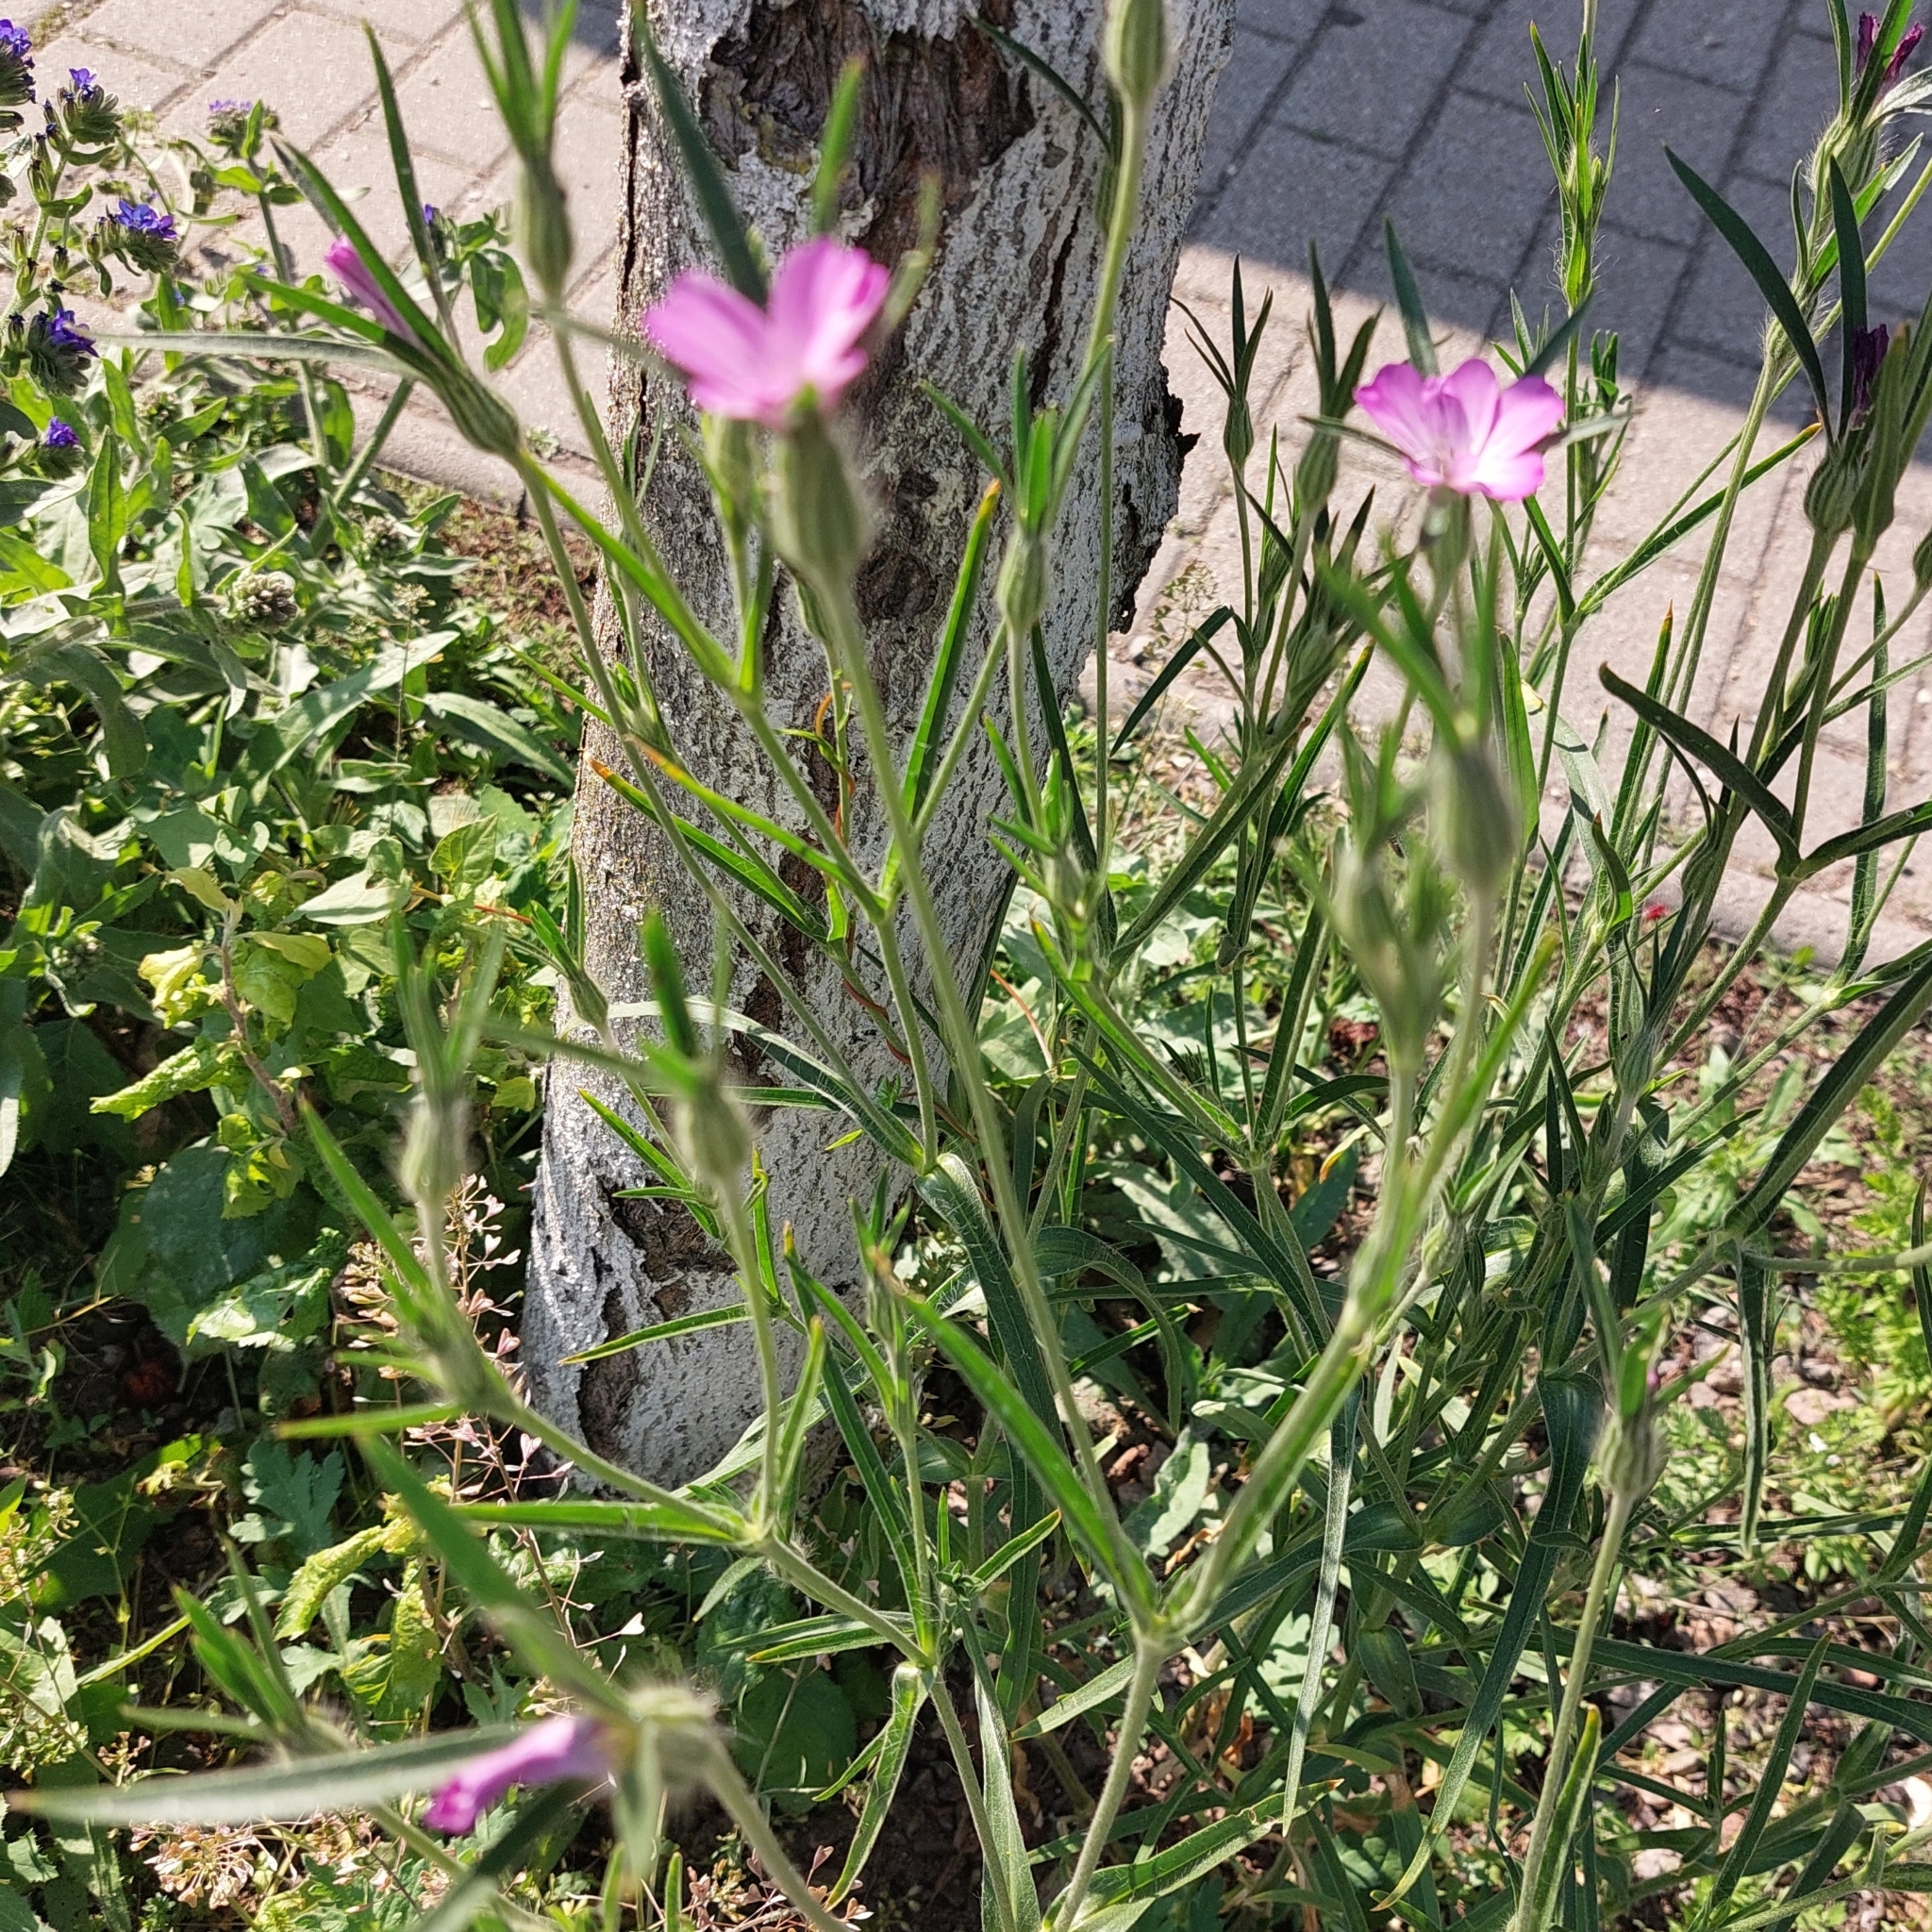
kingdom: Plantae
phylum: Tracheophyta
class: Magnoliopsida
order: Caryophyllales
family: Caryophyllaceae
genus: Agrostemma
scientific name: Agrostemma githago
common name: Common corncockle
